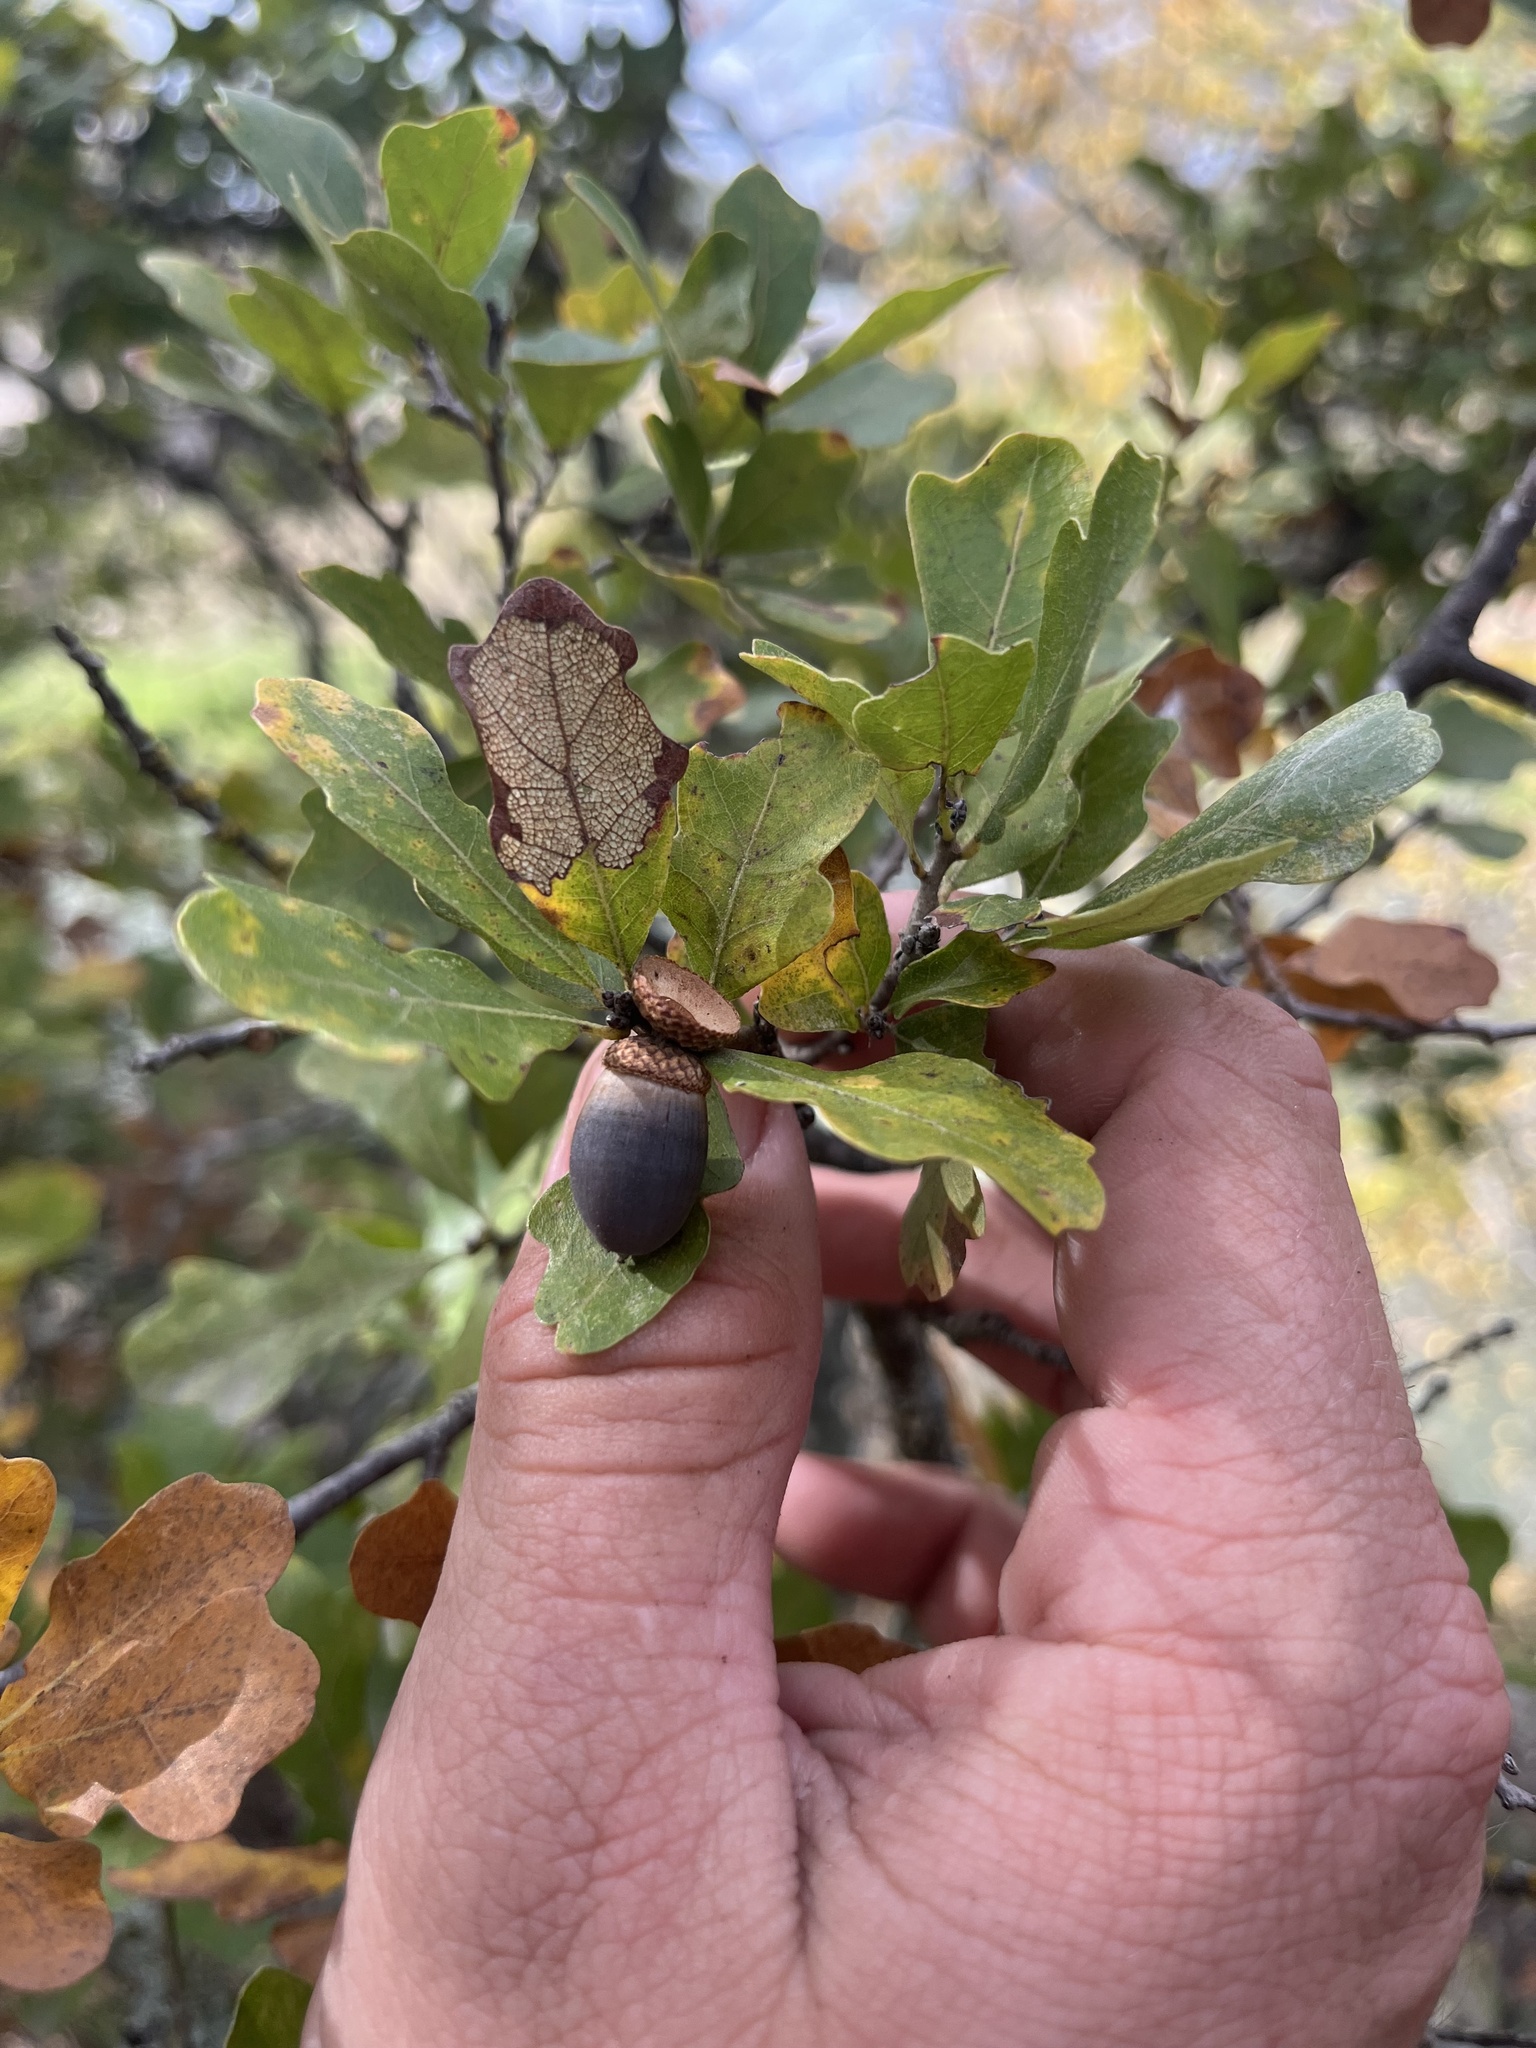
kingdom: Plantae
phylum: Tracheophyta
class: Magnoliopsida
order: Fagales
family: Fagaceae
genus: Quercus
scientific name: Quercus sinuata
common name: Durand oak
